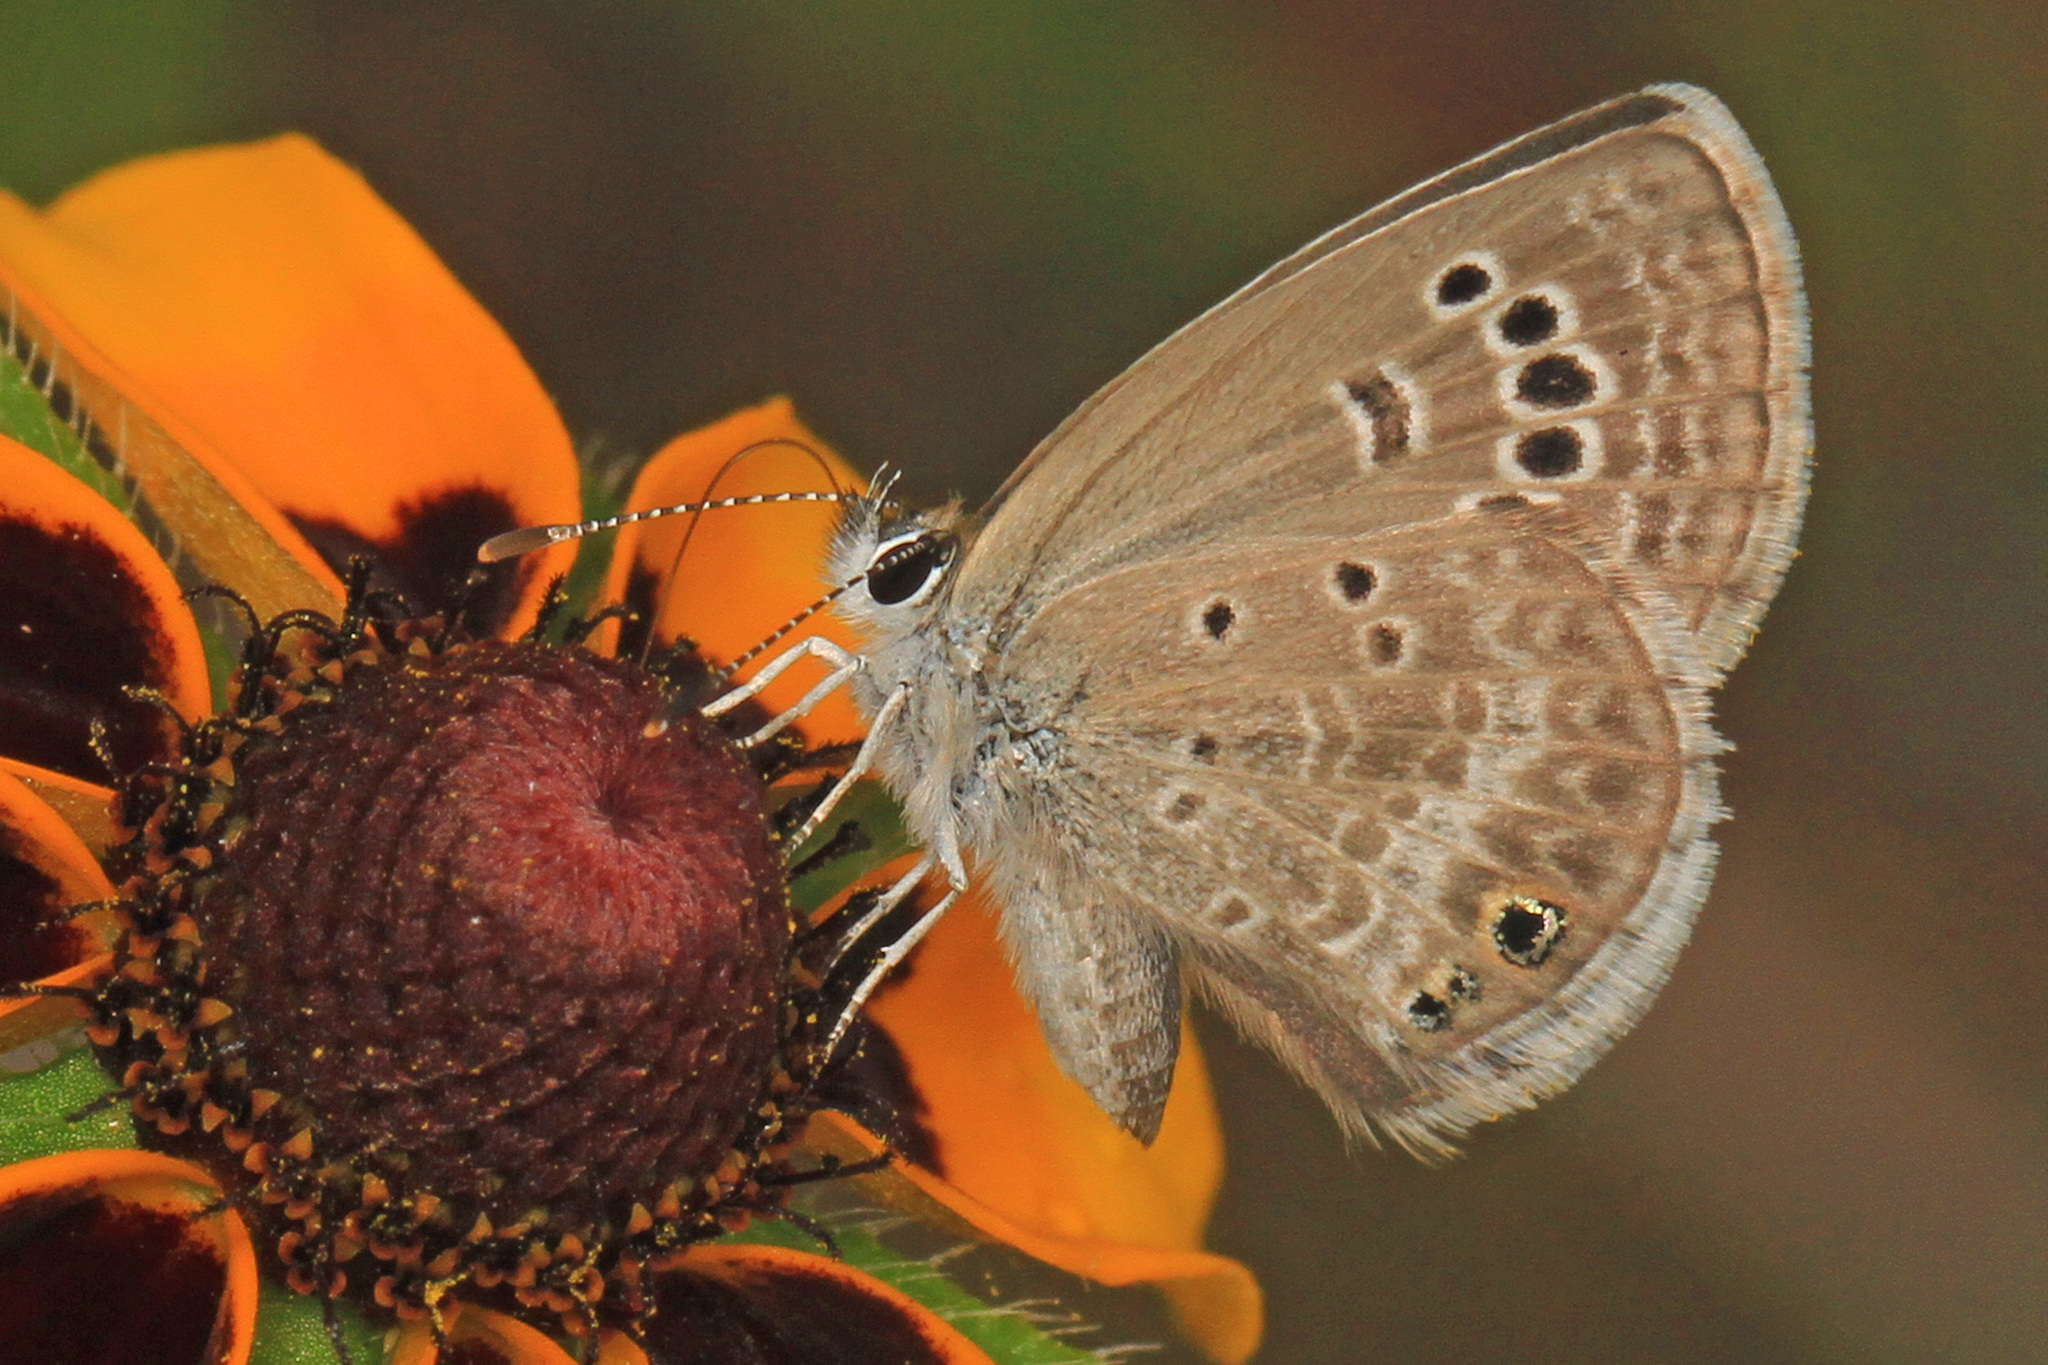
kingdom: Animalia
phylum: Arthropoda
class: Insecta
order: Lepidoptera
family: Lycaenidae
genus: Echinargus
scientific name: Echinargus isola
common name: Reakirt's blue
